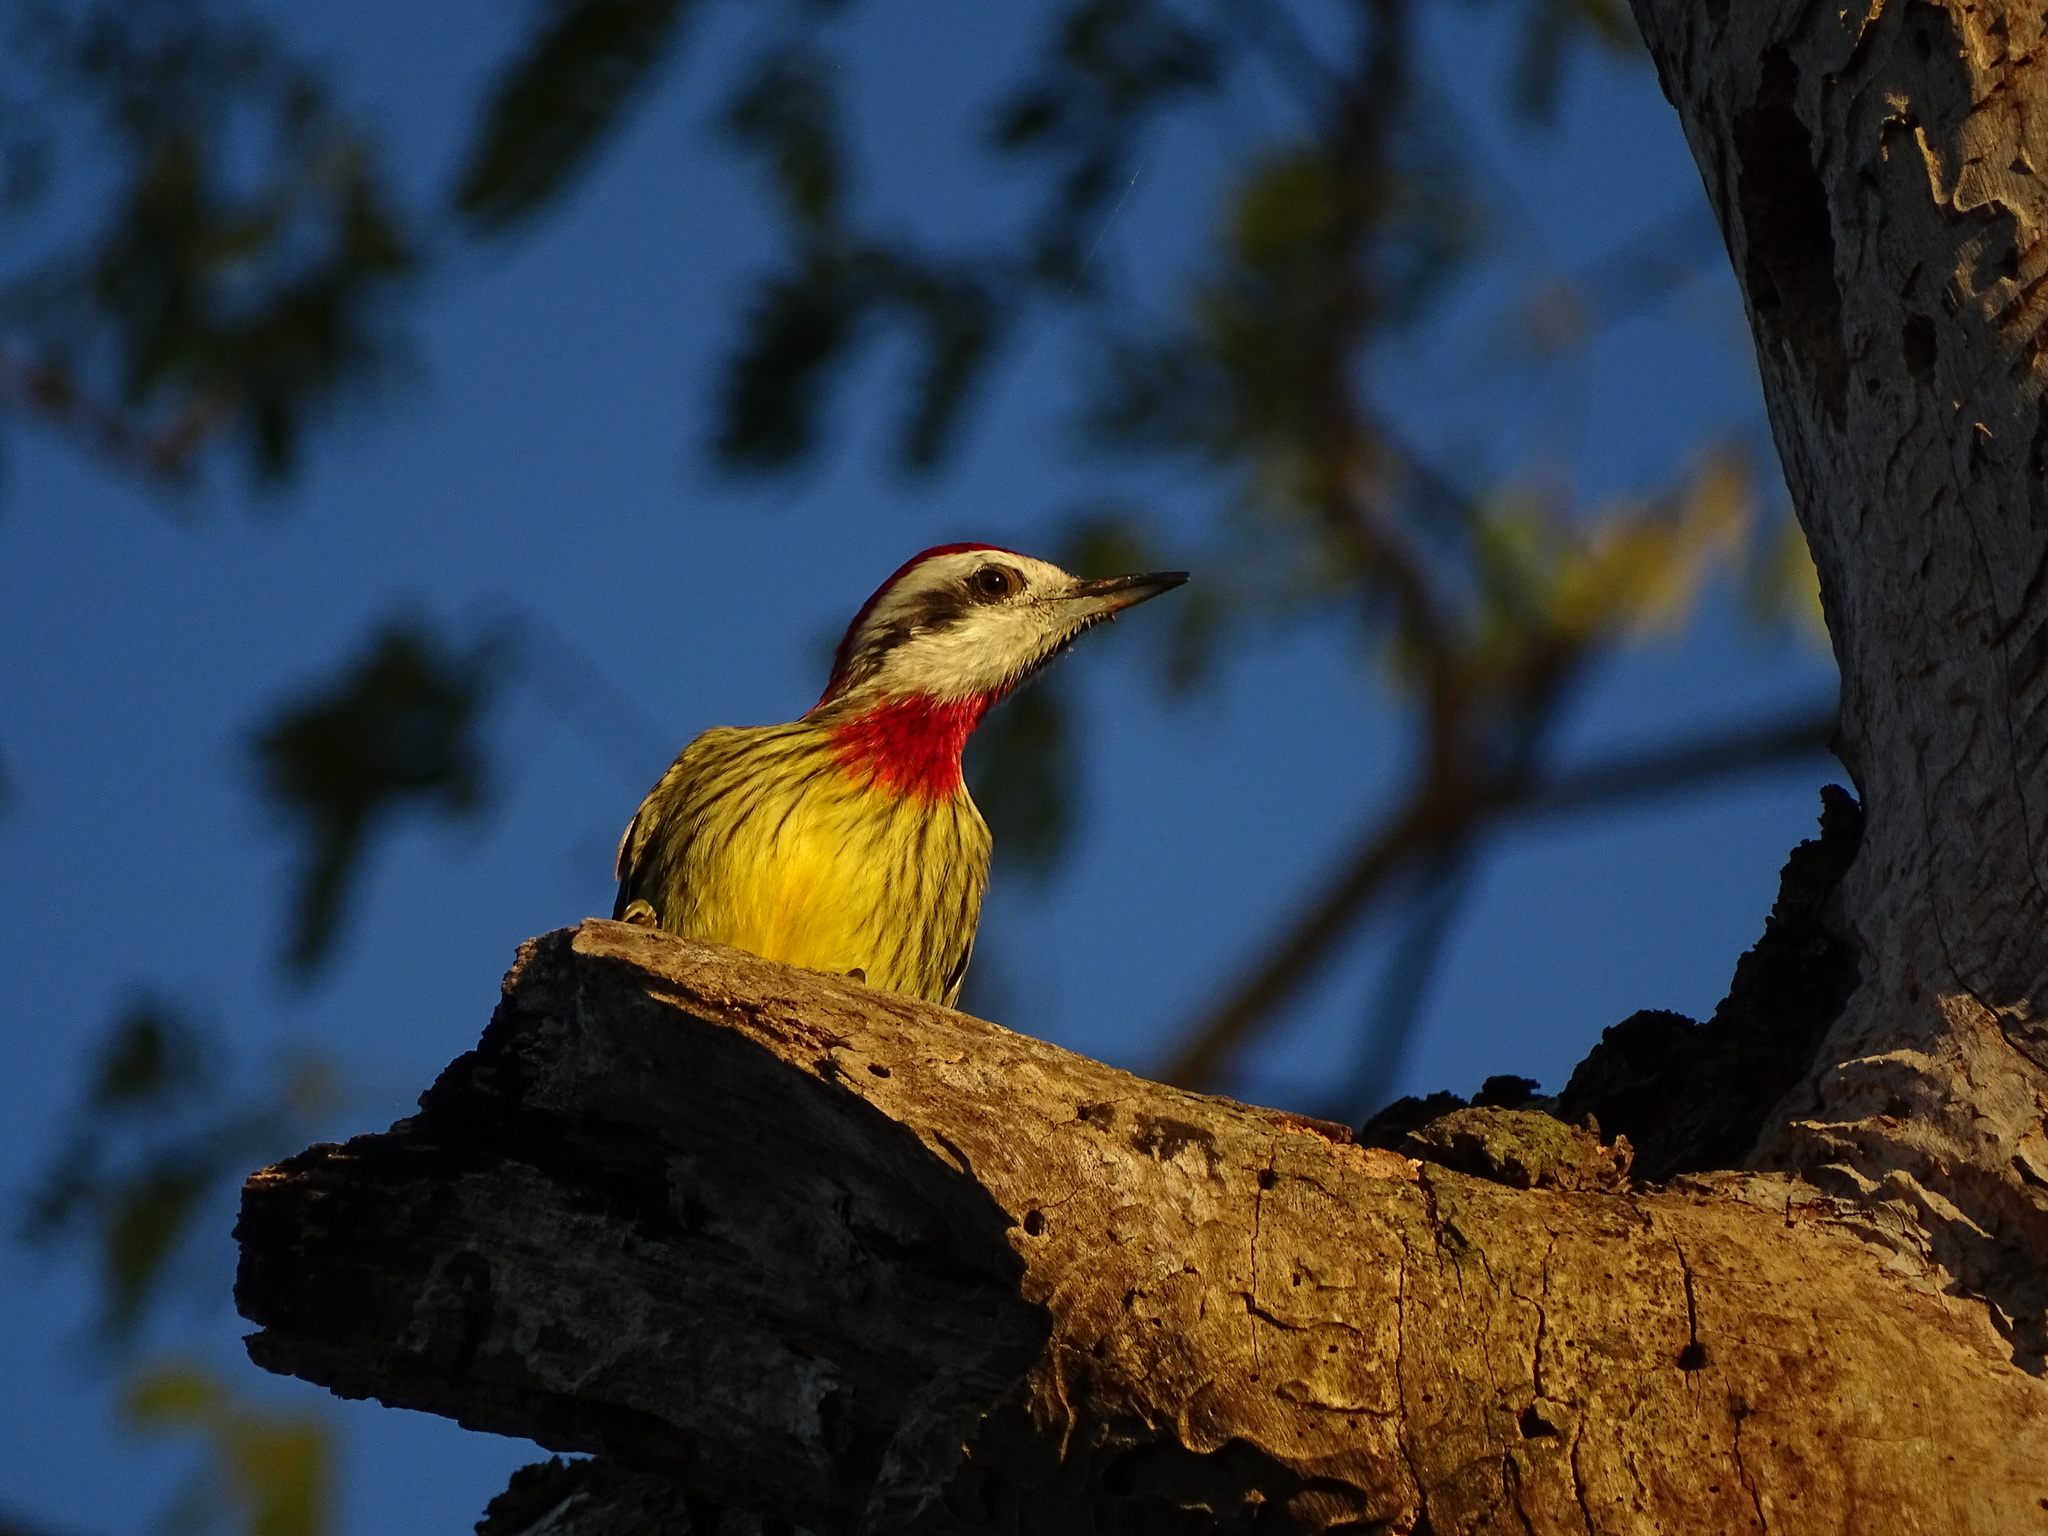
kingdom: Animalia
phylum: Chordata
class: Aves
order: Piciformes
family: Picidae
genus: Xiphidiopicus
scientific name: Xiphidiopicus percussus
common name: Cuban green woodpecker
